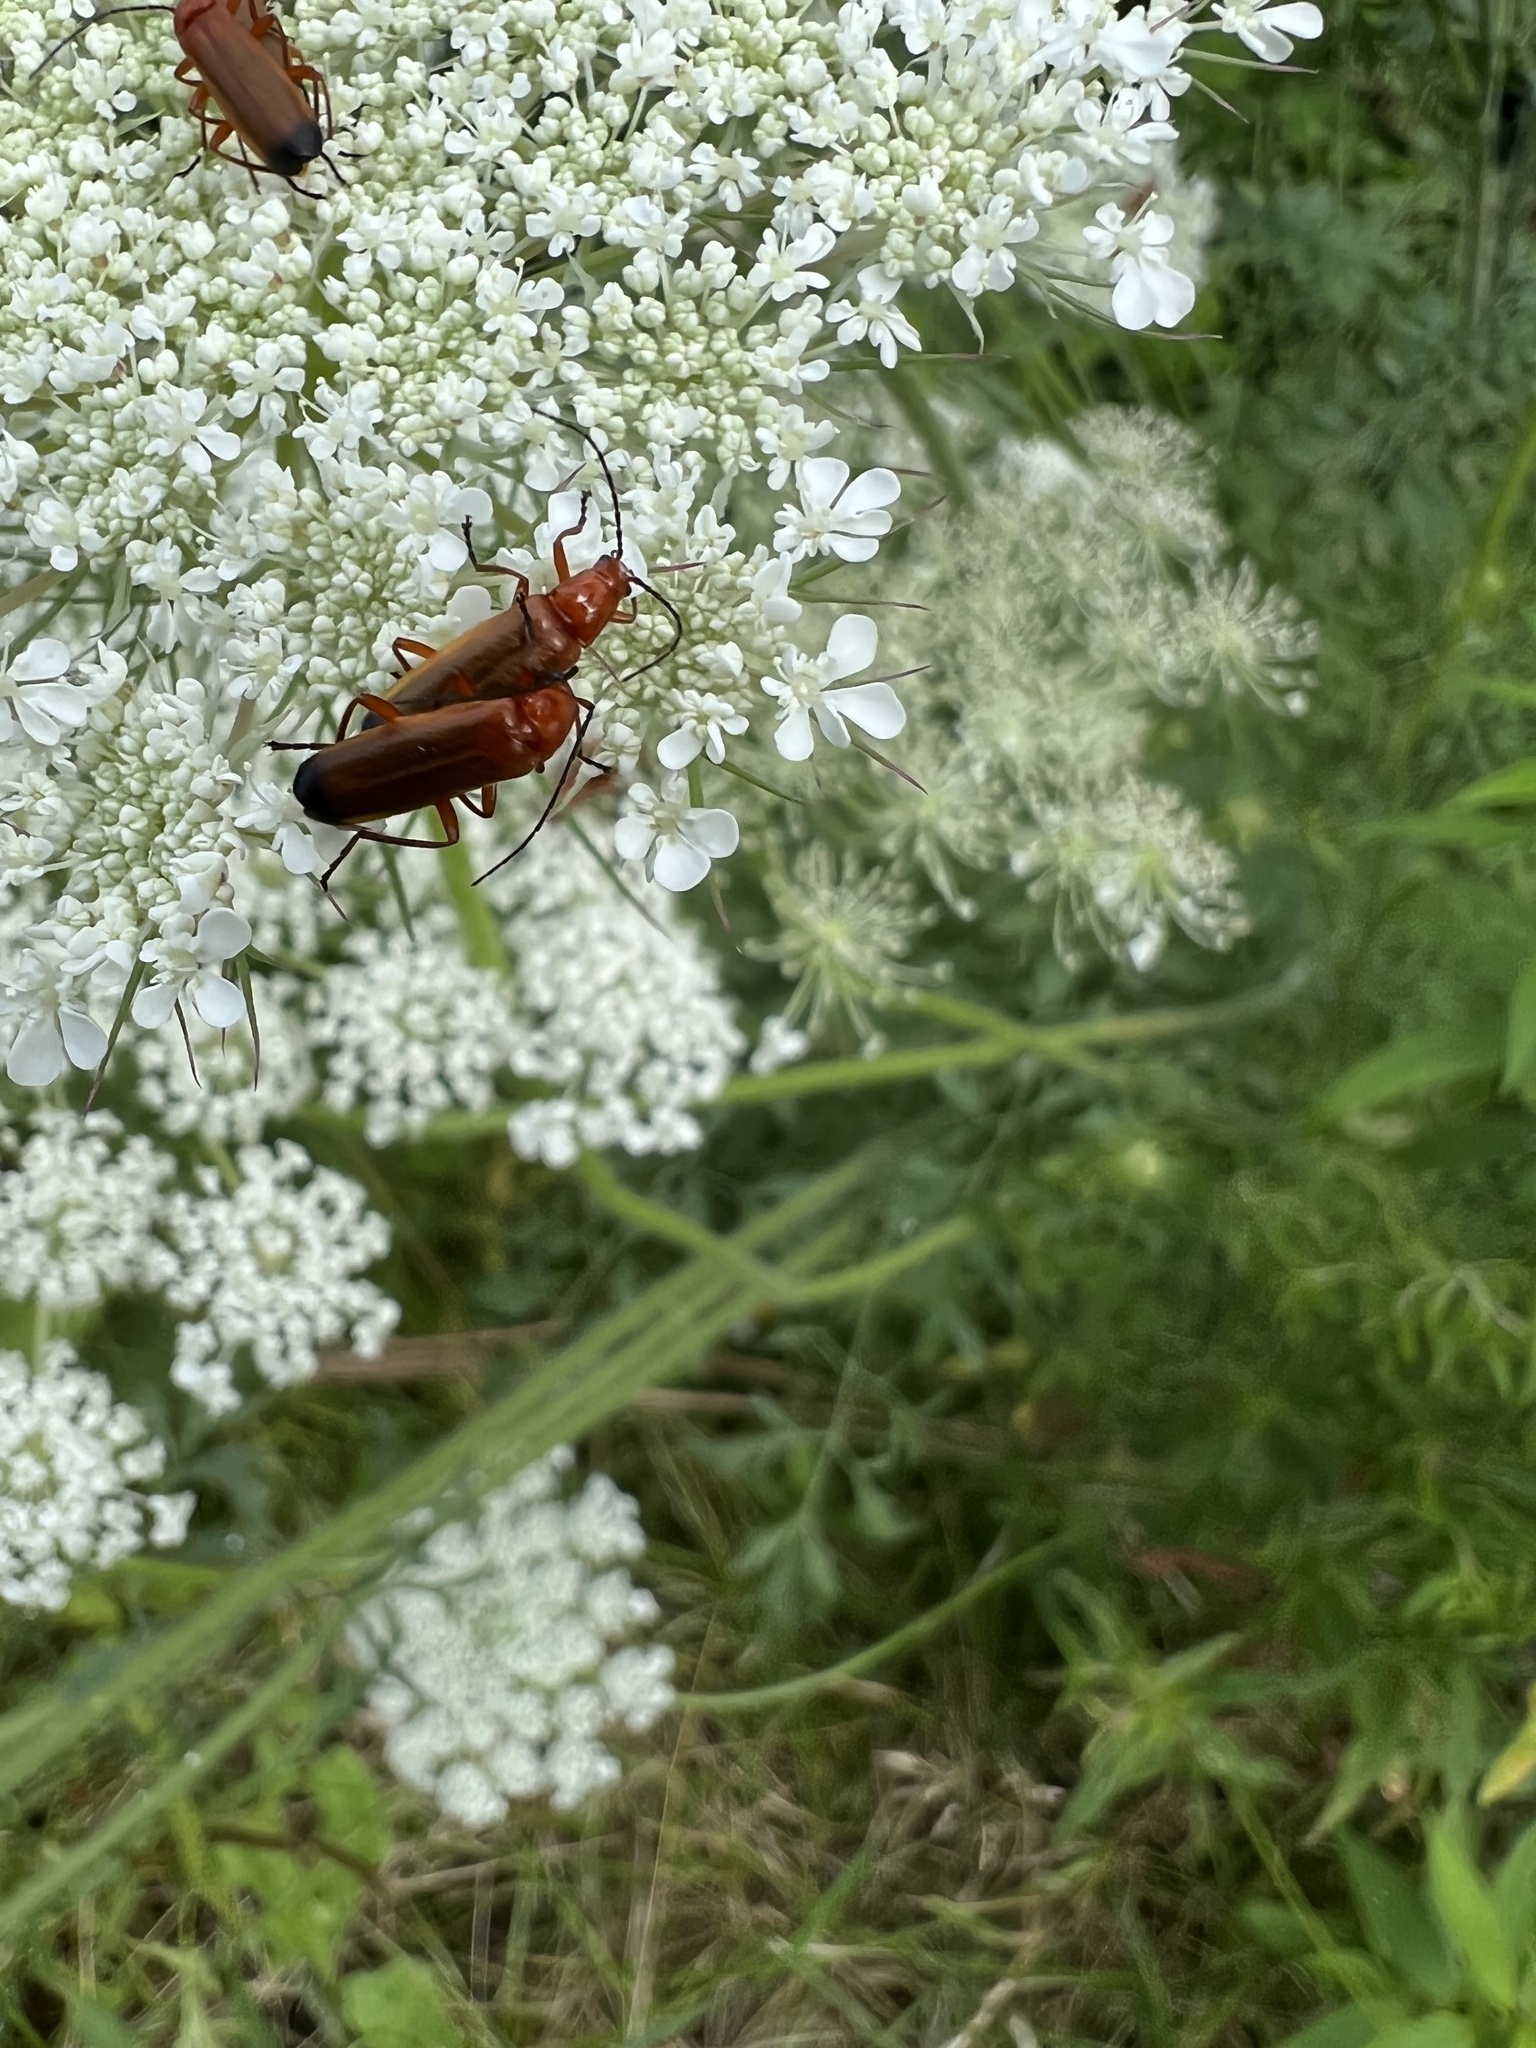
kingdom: Animalia
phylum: Arthropoda
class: Insecta
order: Coleoptera
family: Cantharidae
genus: Rhagonycha
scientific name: Rhagonycha fulva
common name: Common red soldier beetle
